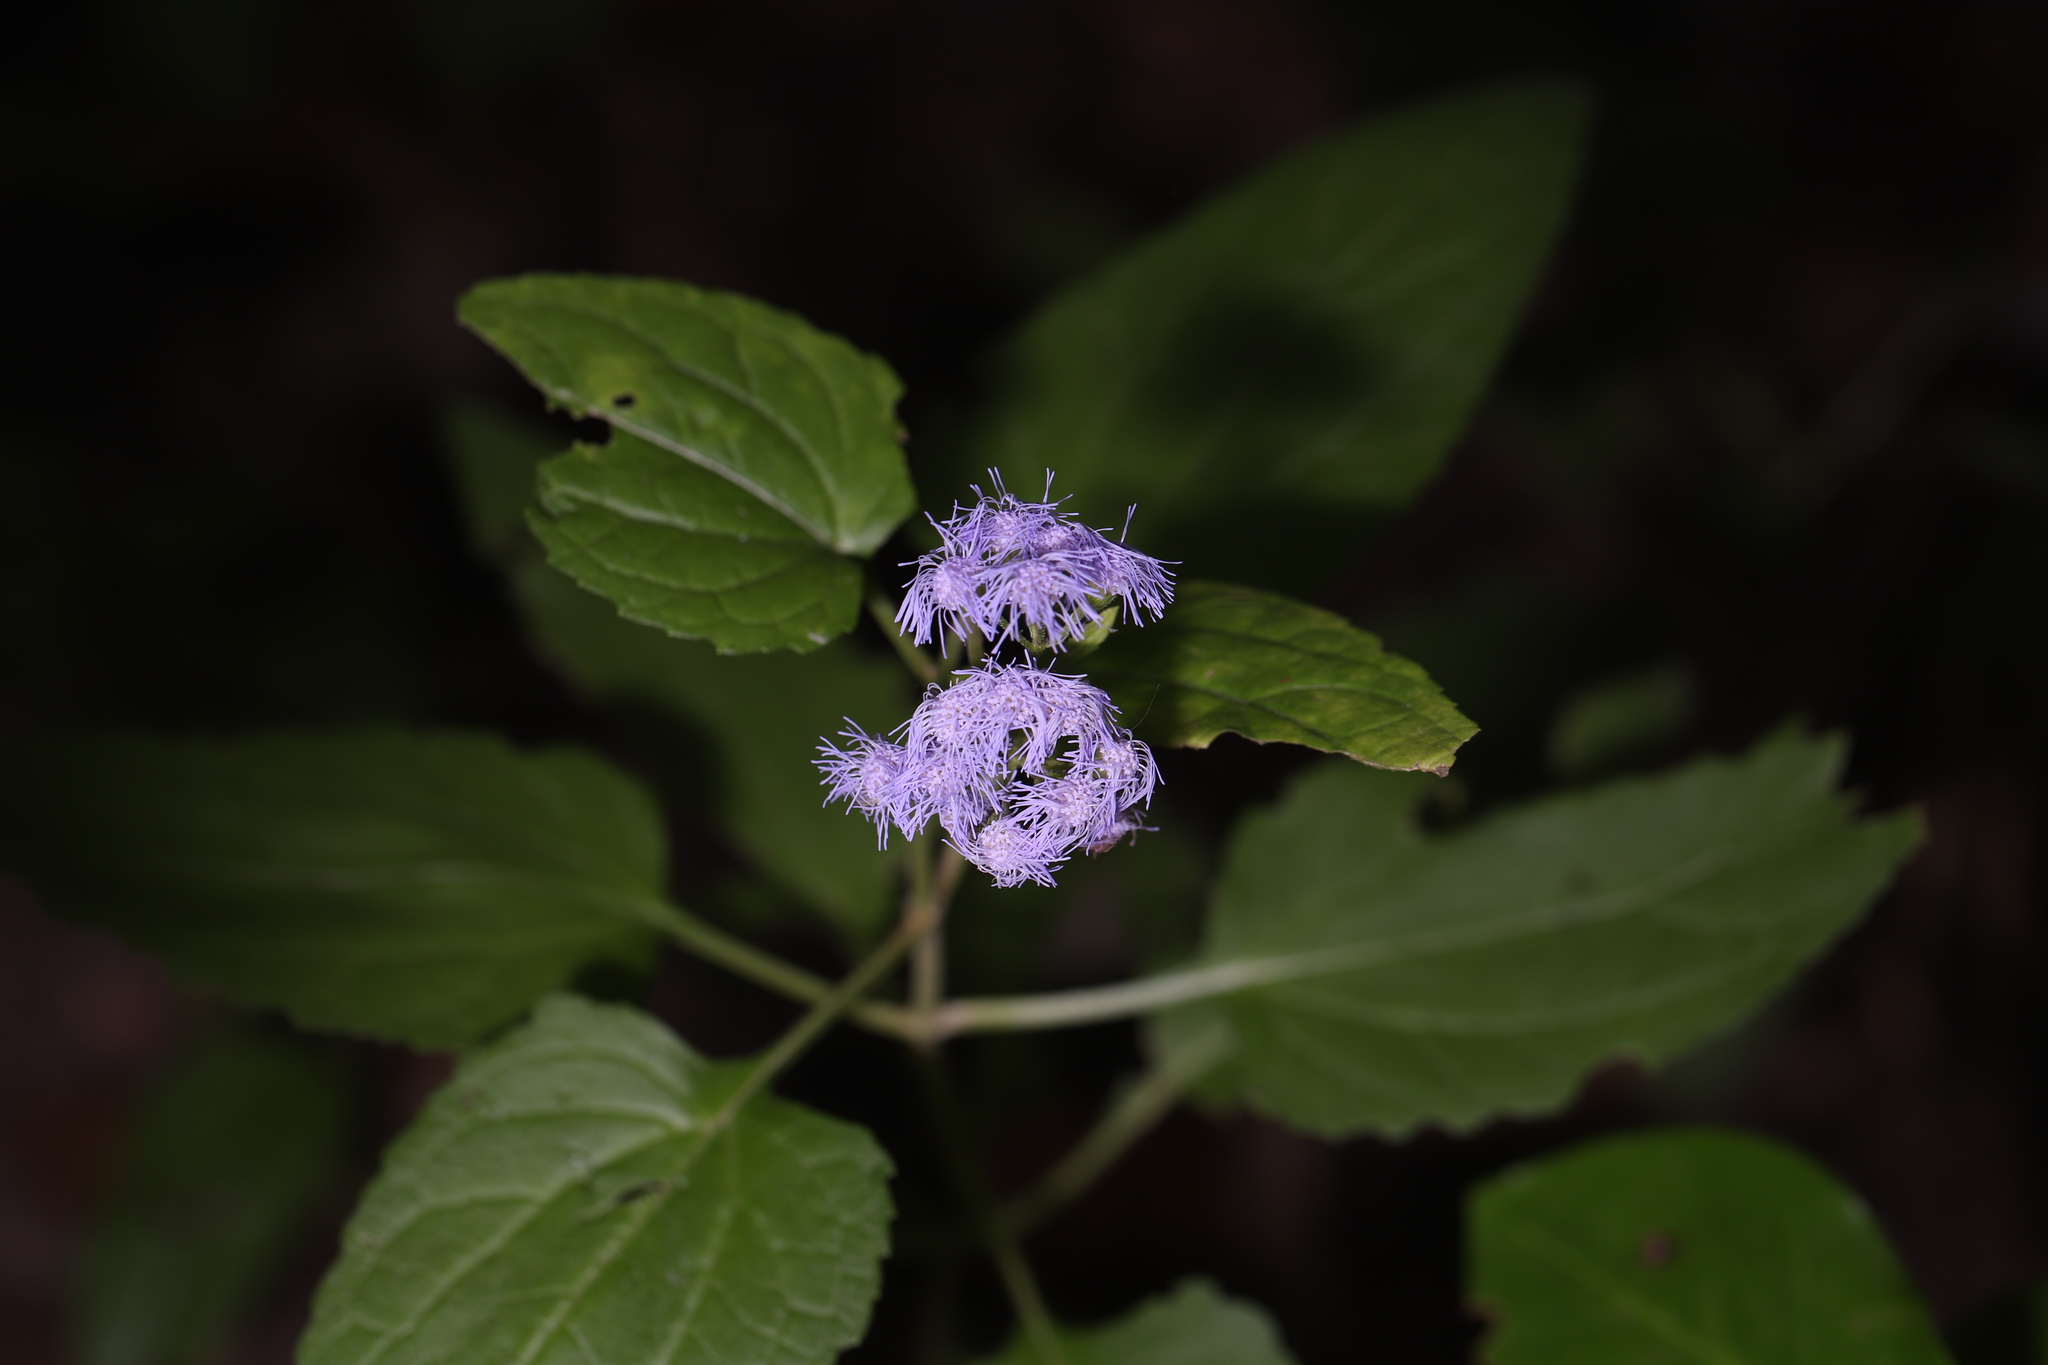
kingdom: Plantae
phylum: Tracheophyta
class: Magnoliopsida
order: Asterales
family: Asteraceae
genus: Conoclinium
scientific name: Conoclinium coelestinum
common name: Blue mistflower
